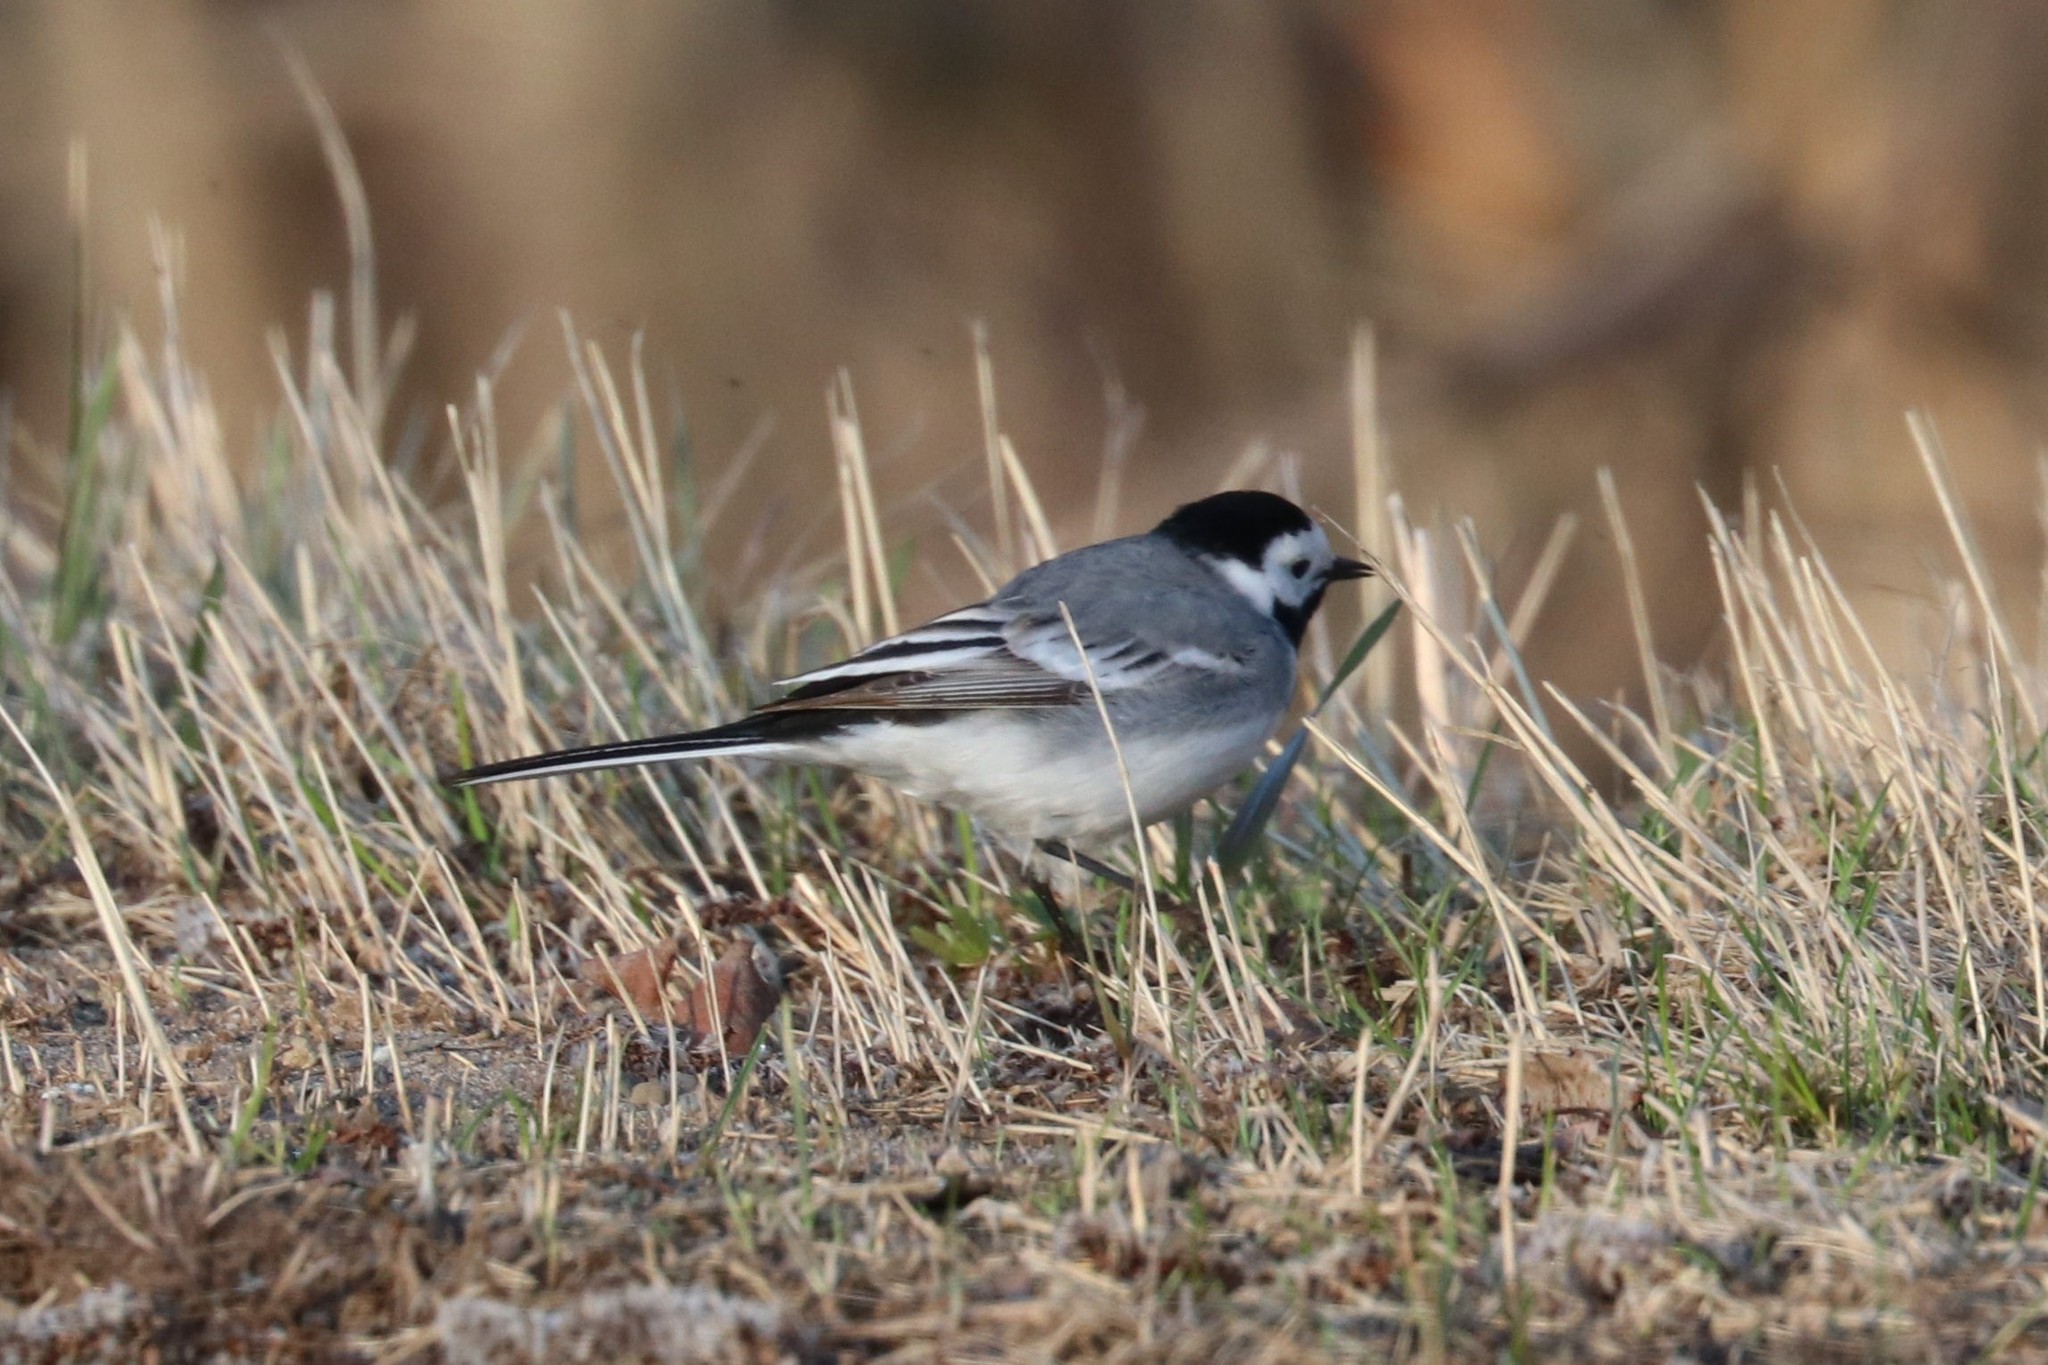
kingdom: Animalia
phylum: Chordata
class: Aves
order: Passeriformes
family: Motacillidae
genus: Motacilla
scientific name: Motacilla alba
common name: White wagtail
